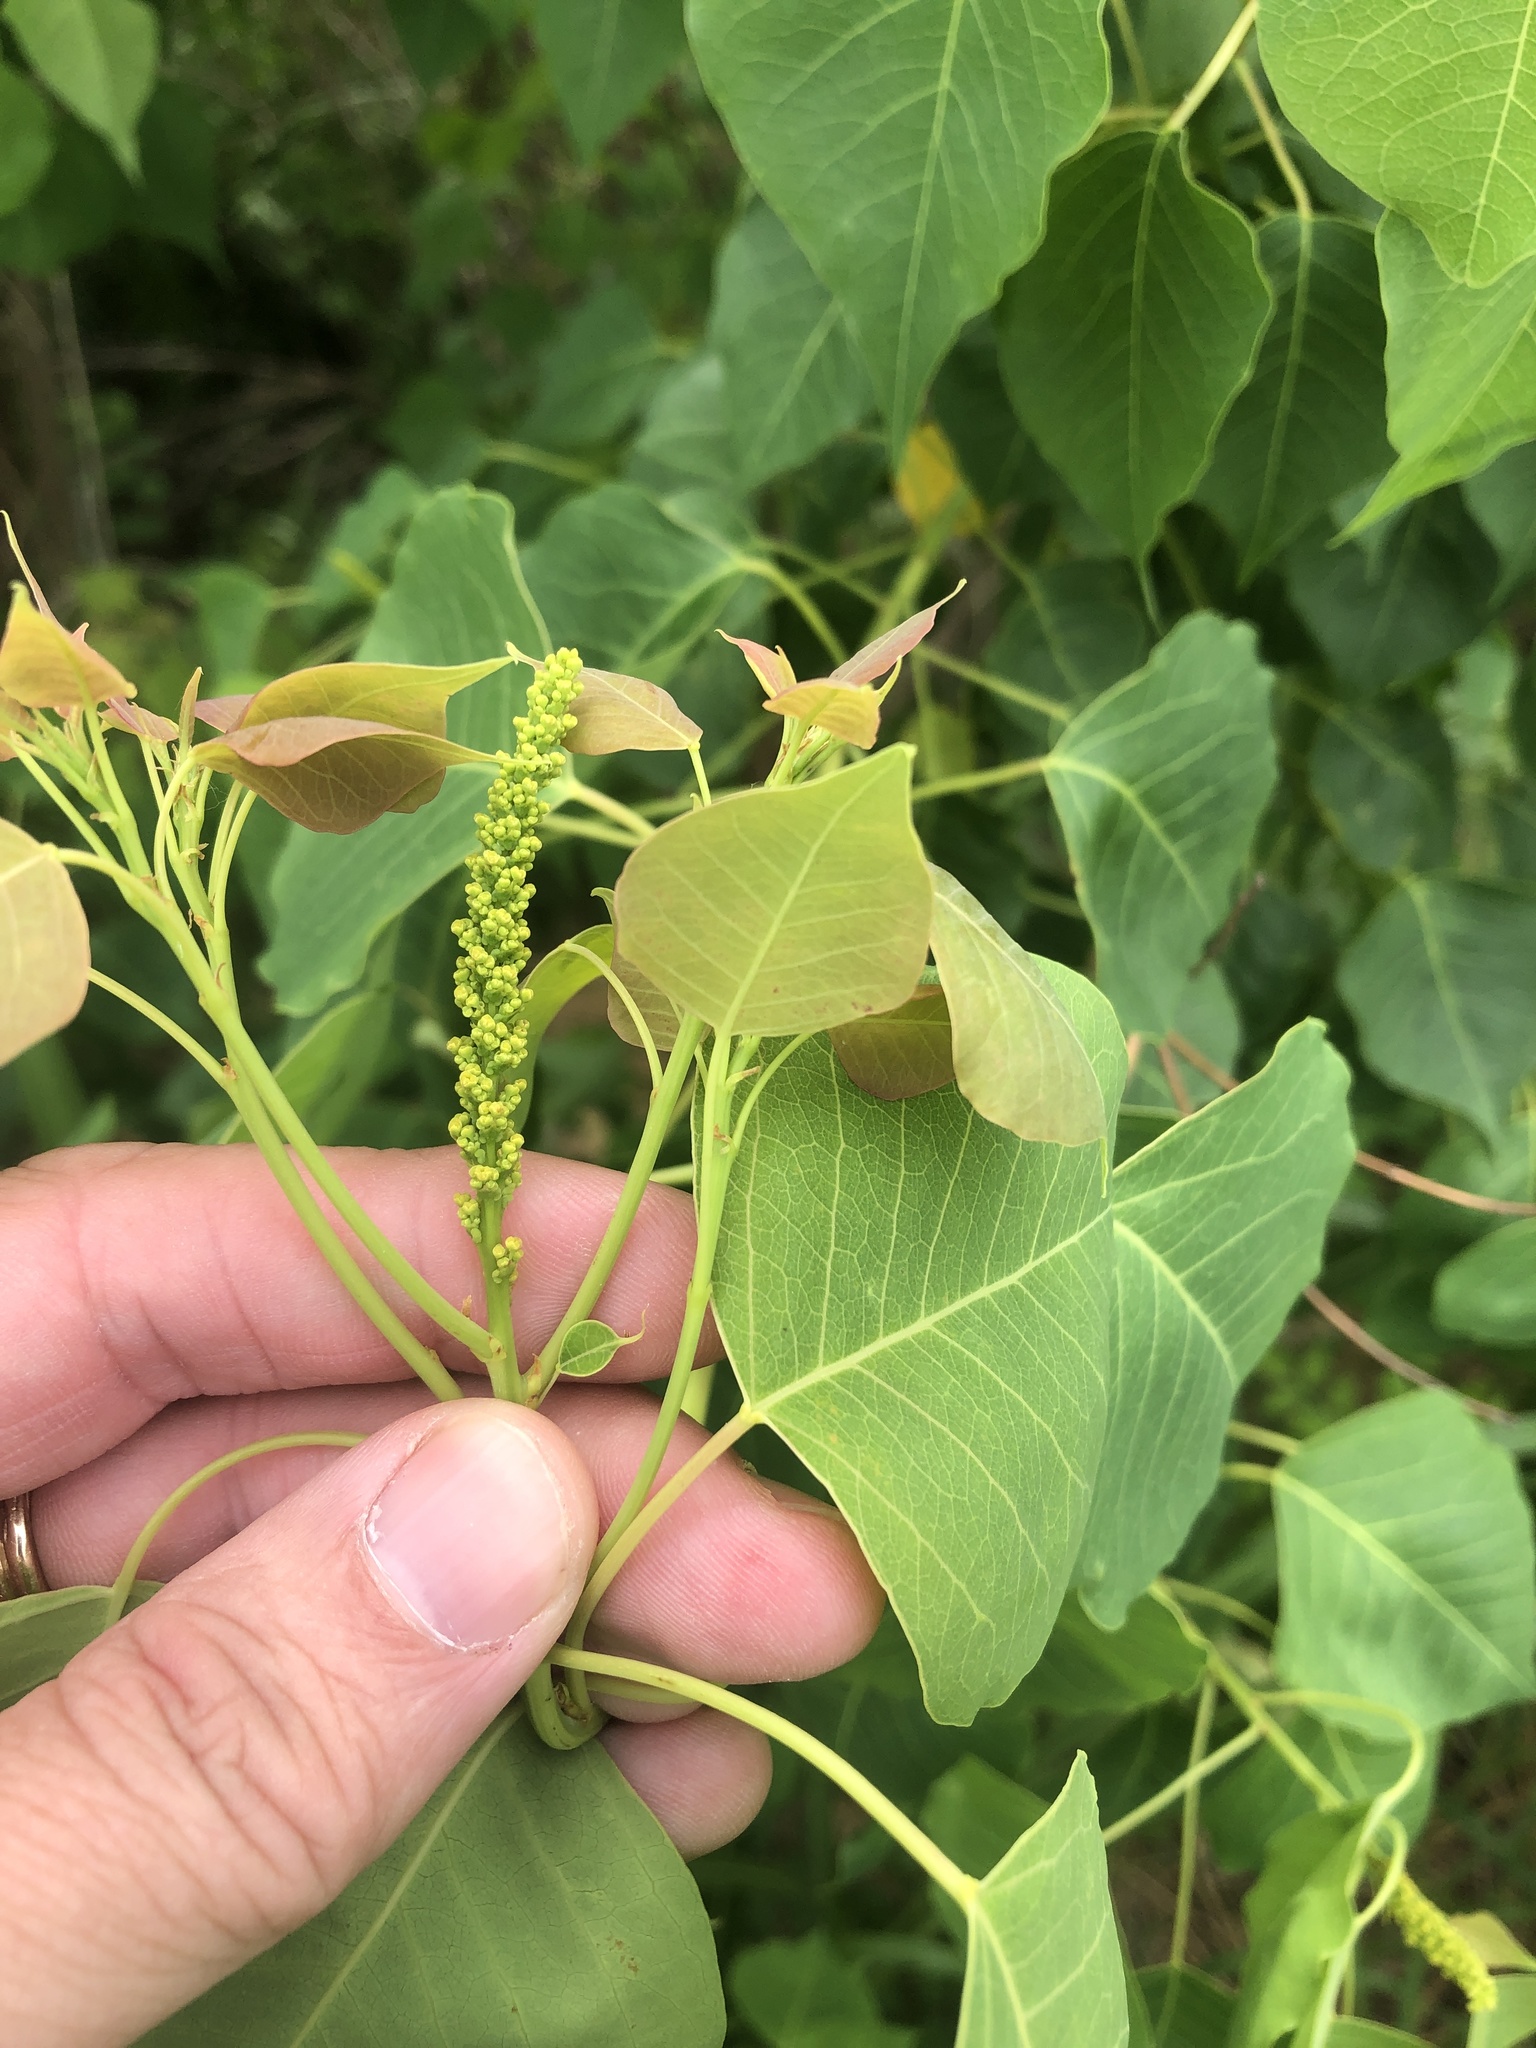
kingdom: Plantae
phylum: Tracheophyta
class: Magnoliopsida
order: Malpighiales
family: Euphorbiaceae
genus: Triadica
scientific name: Triadica sebifera
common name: Chinese tallow
